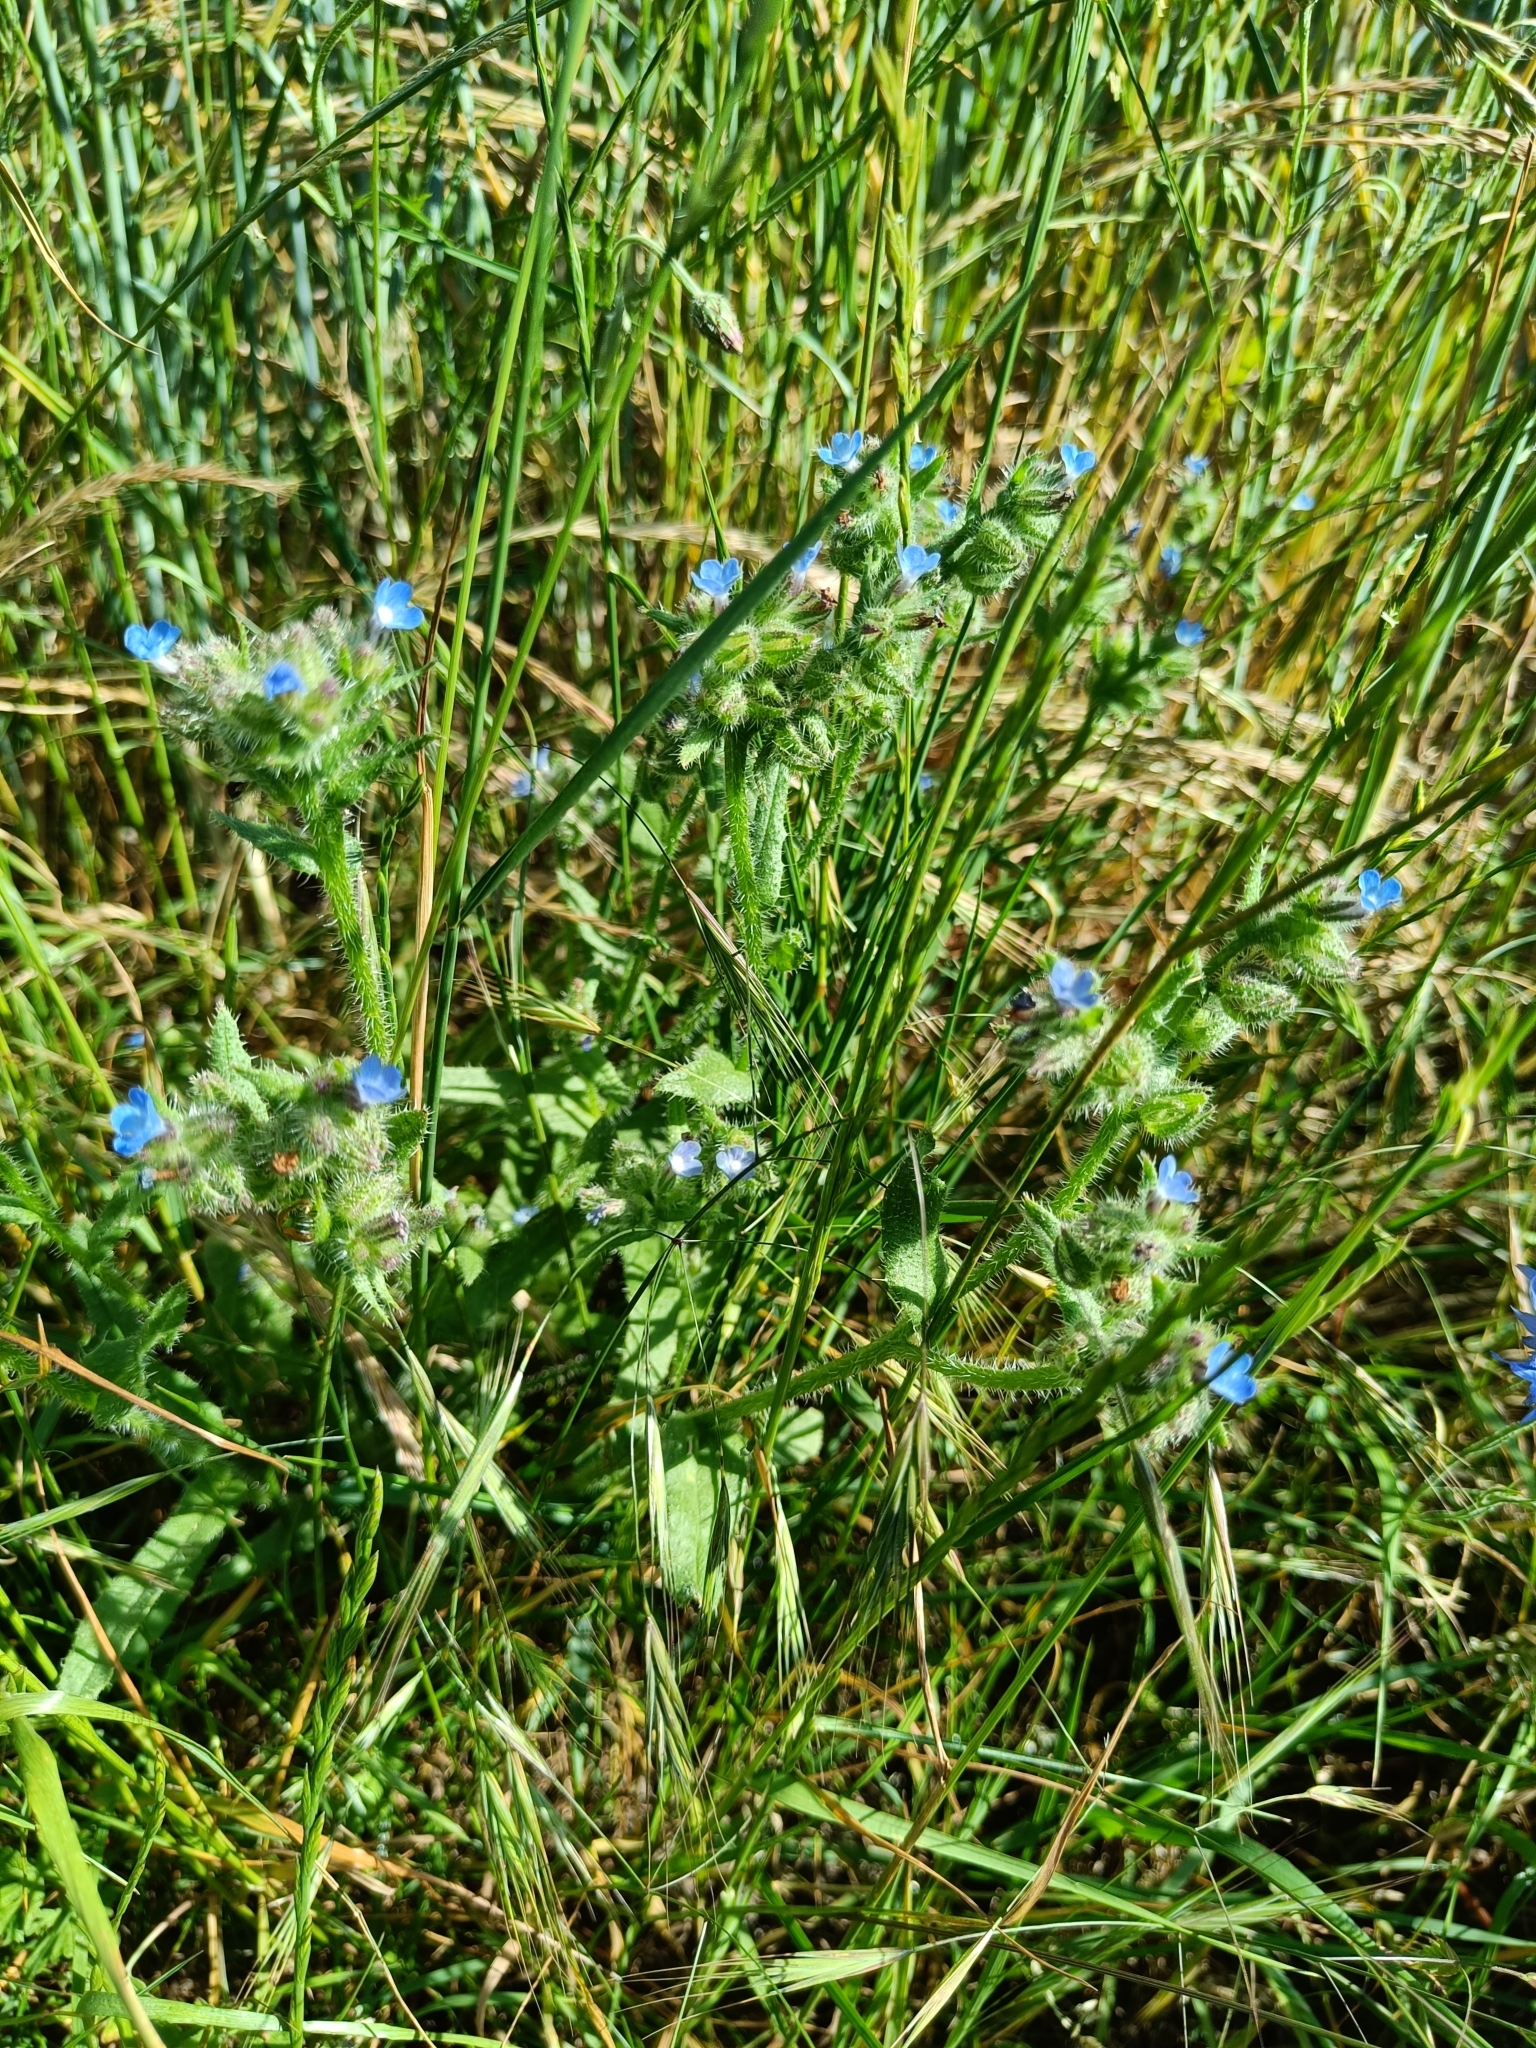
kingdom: Plantae
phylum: Tracheophyta
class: Magnoliopsida
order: Boraginales
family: Boraginaceae
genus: Lycopsis
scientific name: Lycopsis arvensis
